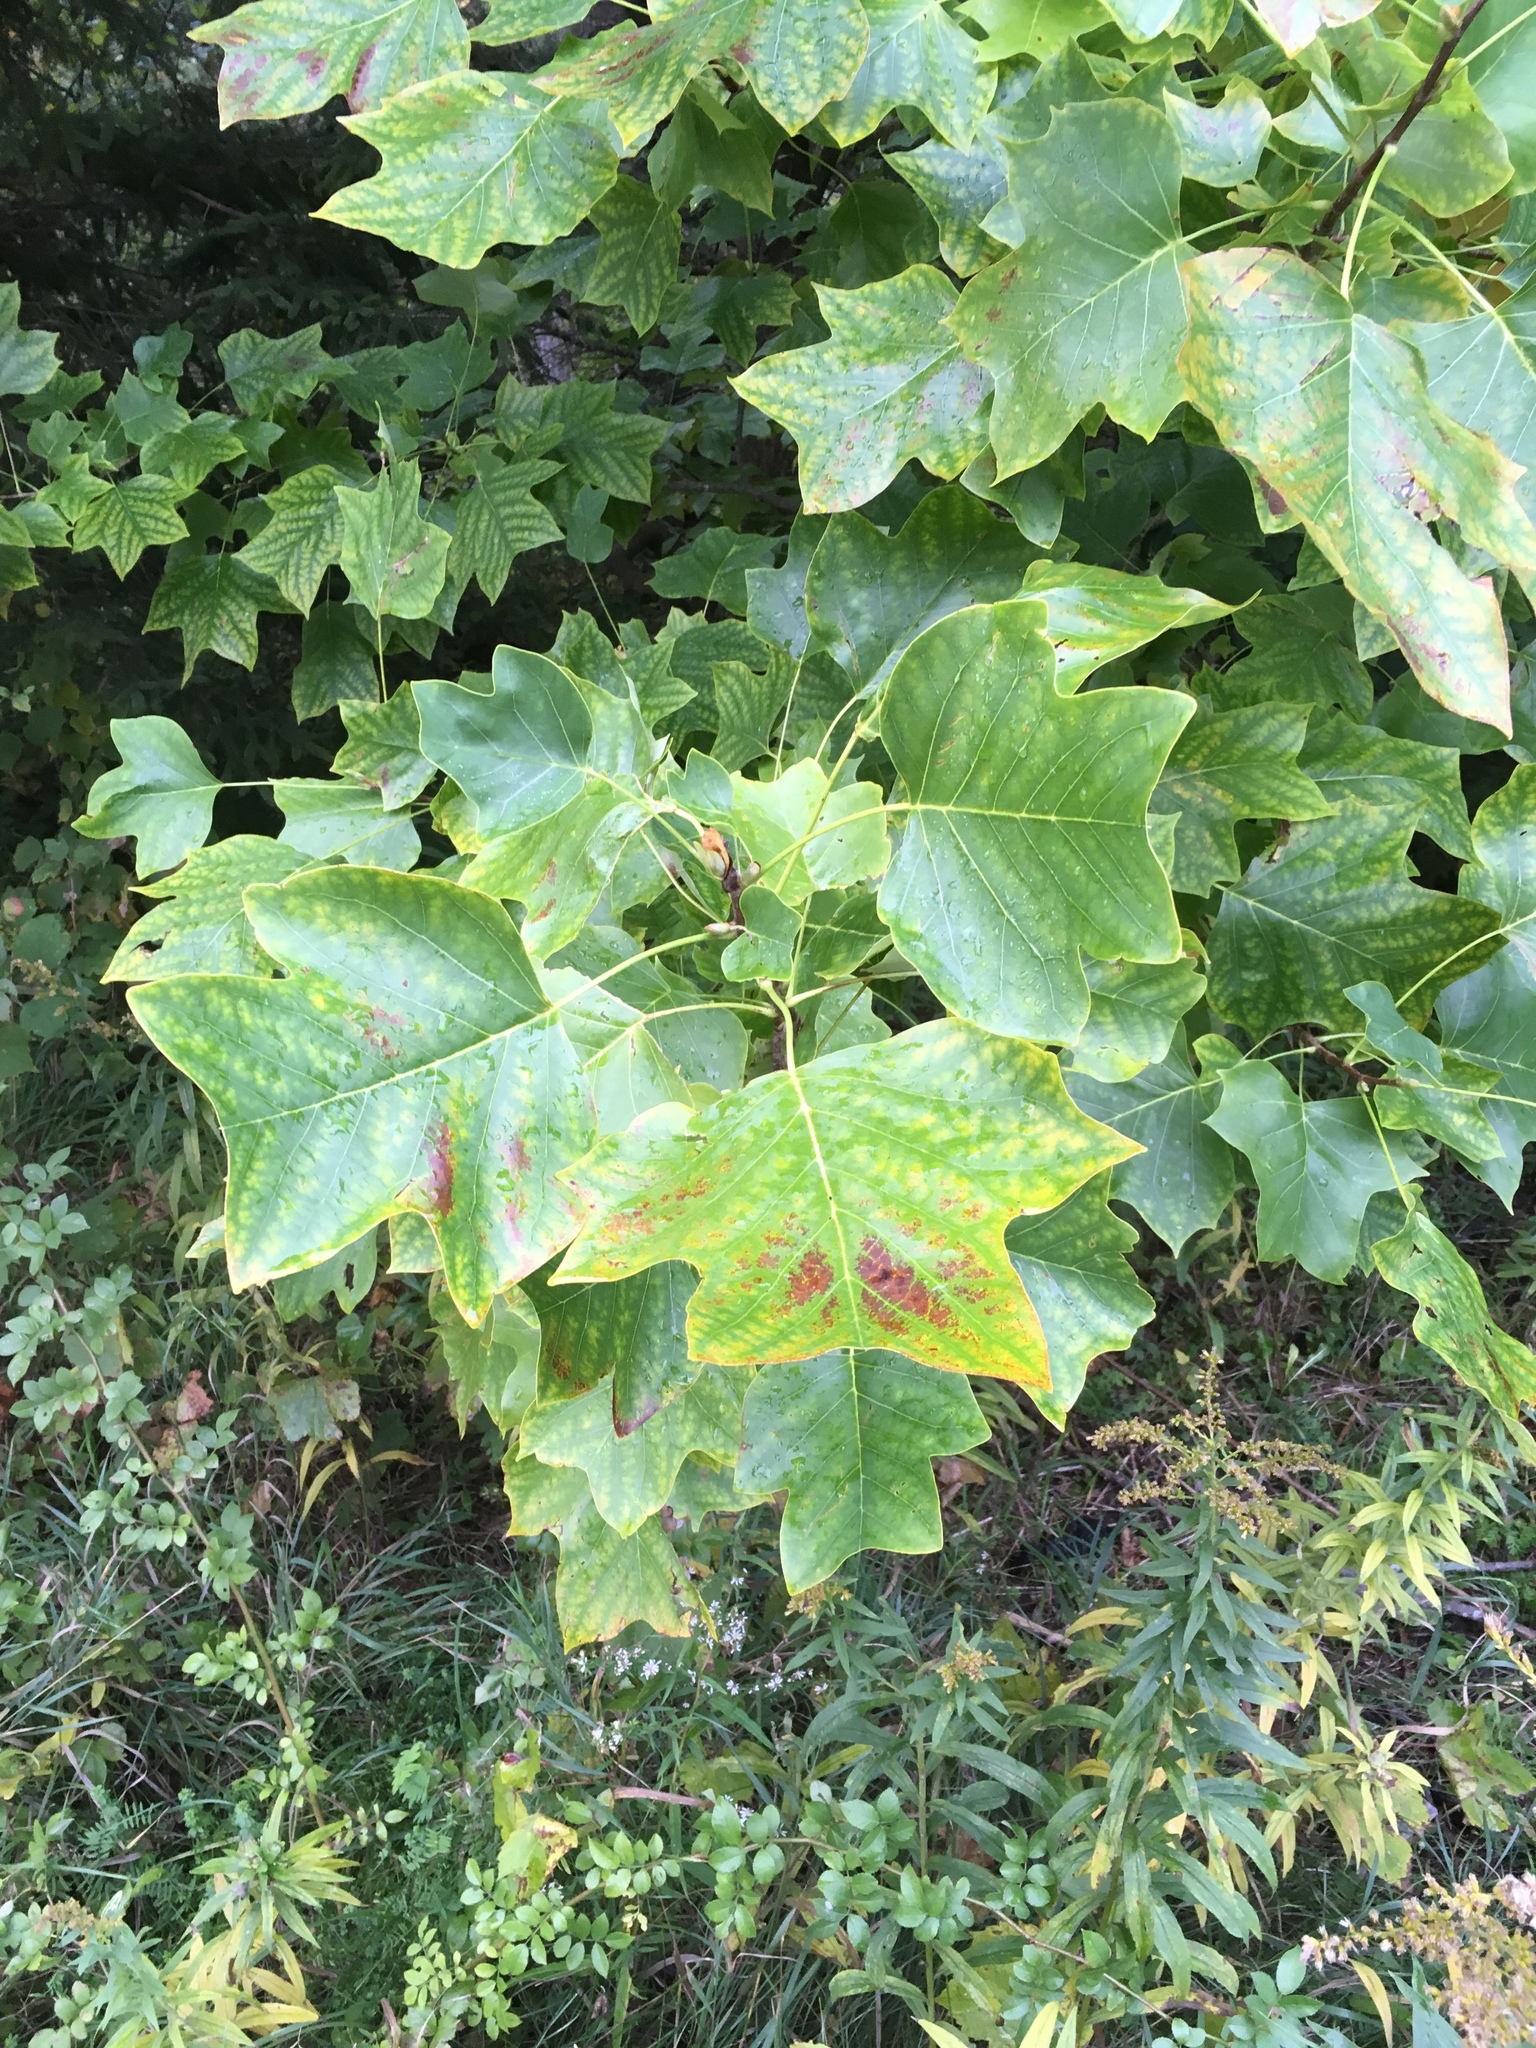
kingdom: Plantae
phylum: Tracheophyta
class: Magnoliopsida
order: Magnoliales
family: Magnoliaceae
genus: Liriodendron
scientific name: Liriodendron tulipifera
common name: Tulip tree
